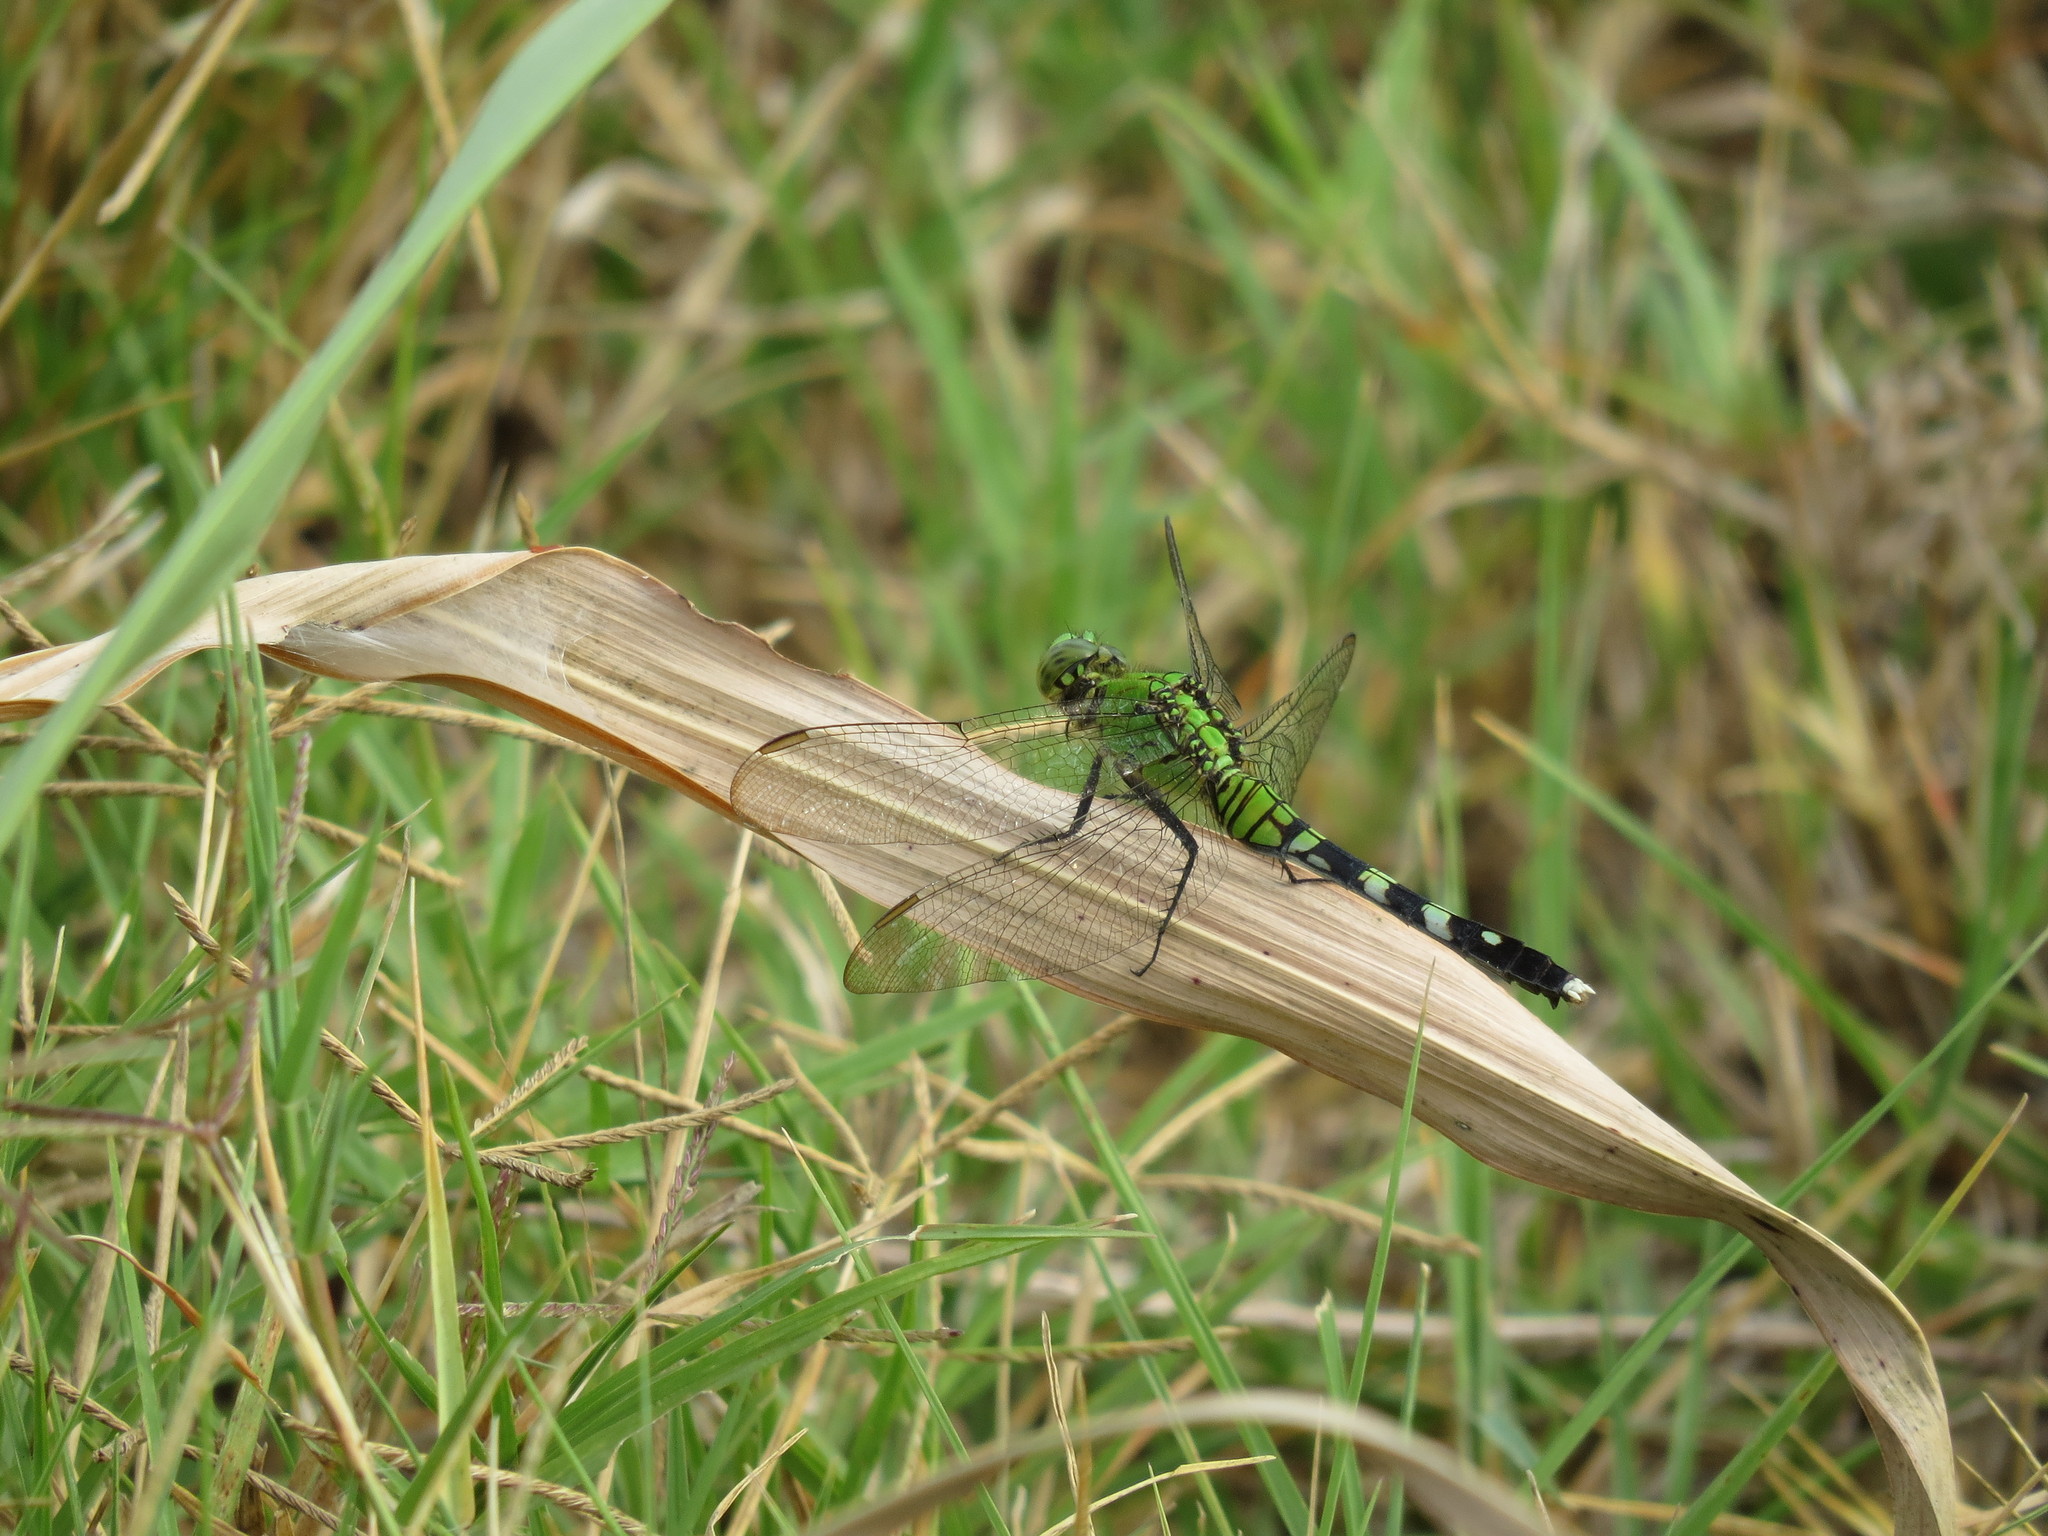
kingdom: Animalia
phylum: Arthropoda
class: Insecta
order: Odonata
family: Libellulidae
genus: Erythemis
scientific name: Erythemis simplicicollis
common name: Eastern pondhawk
